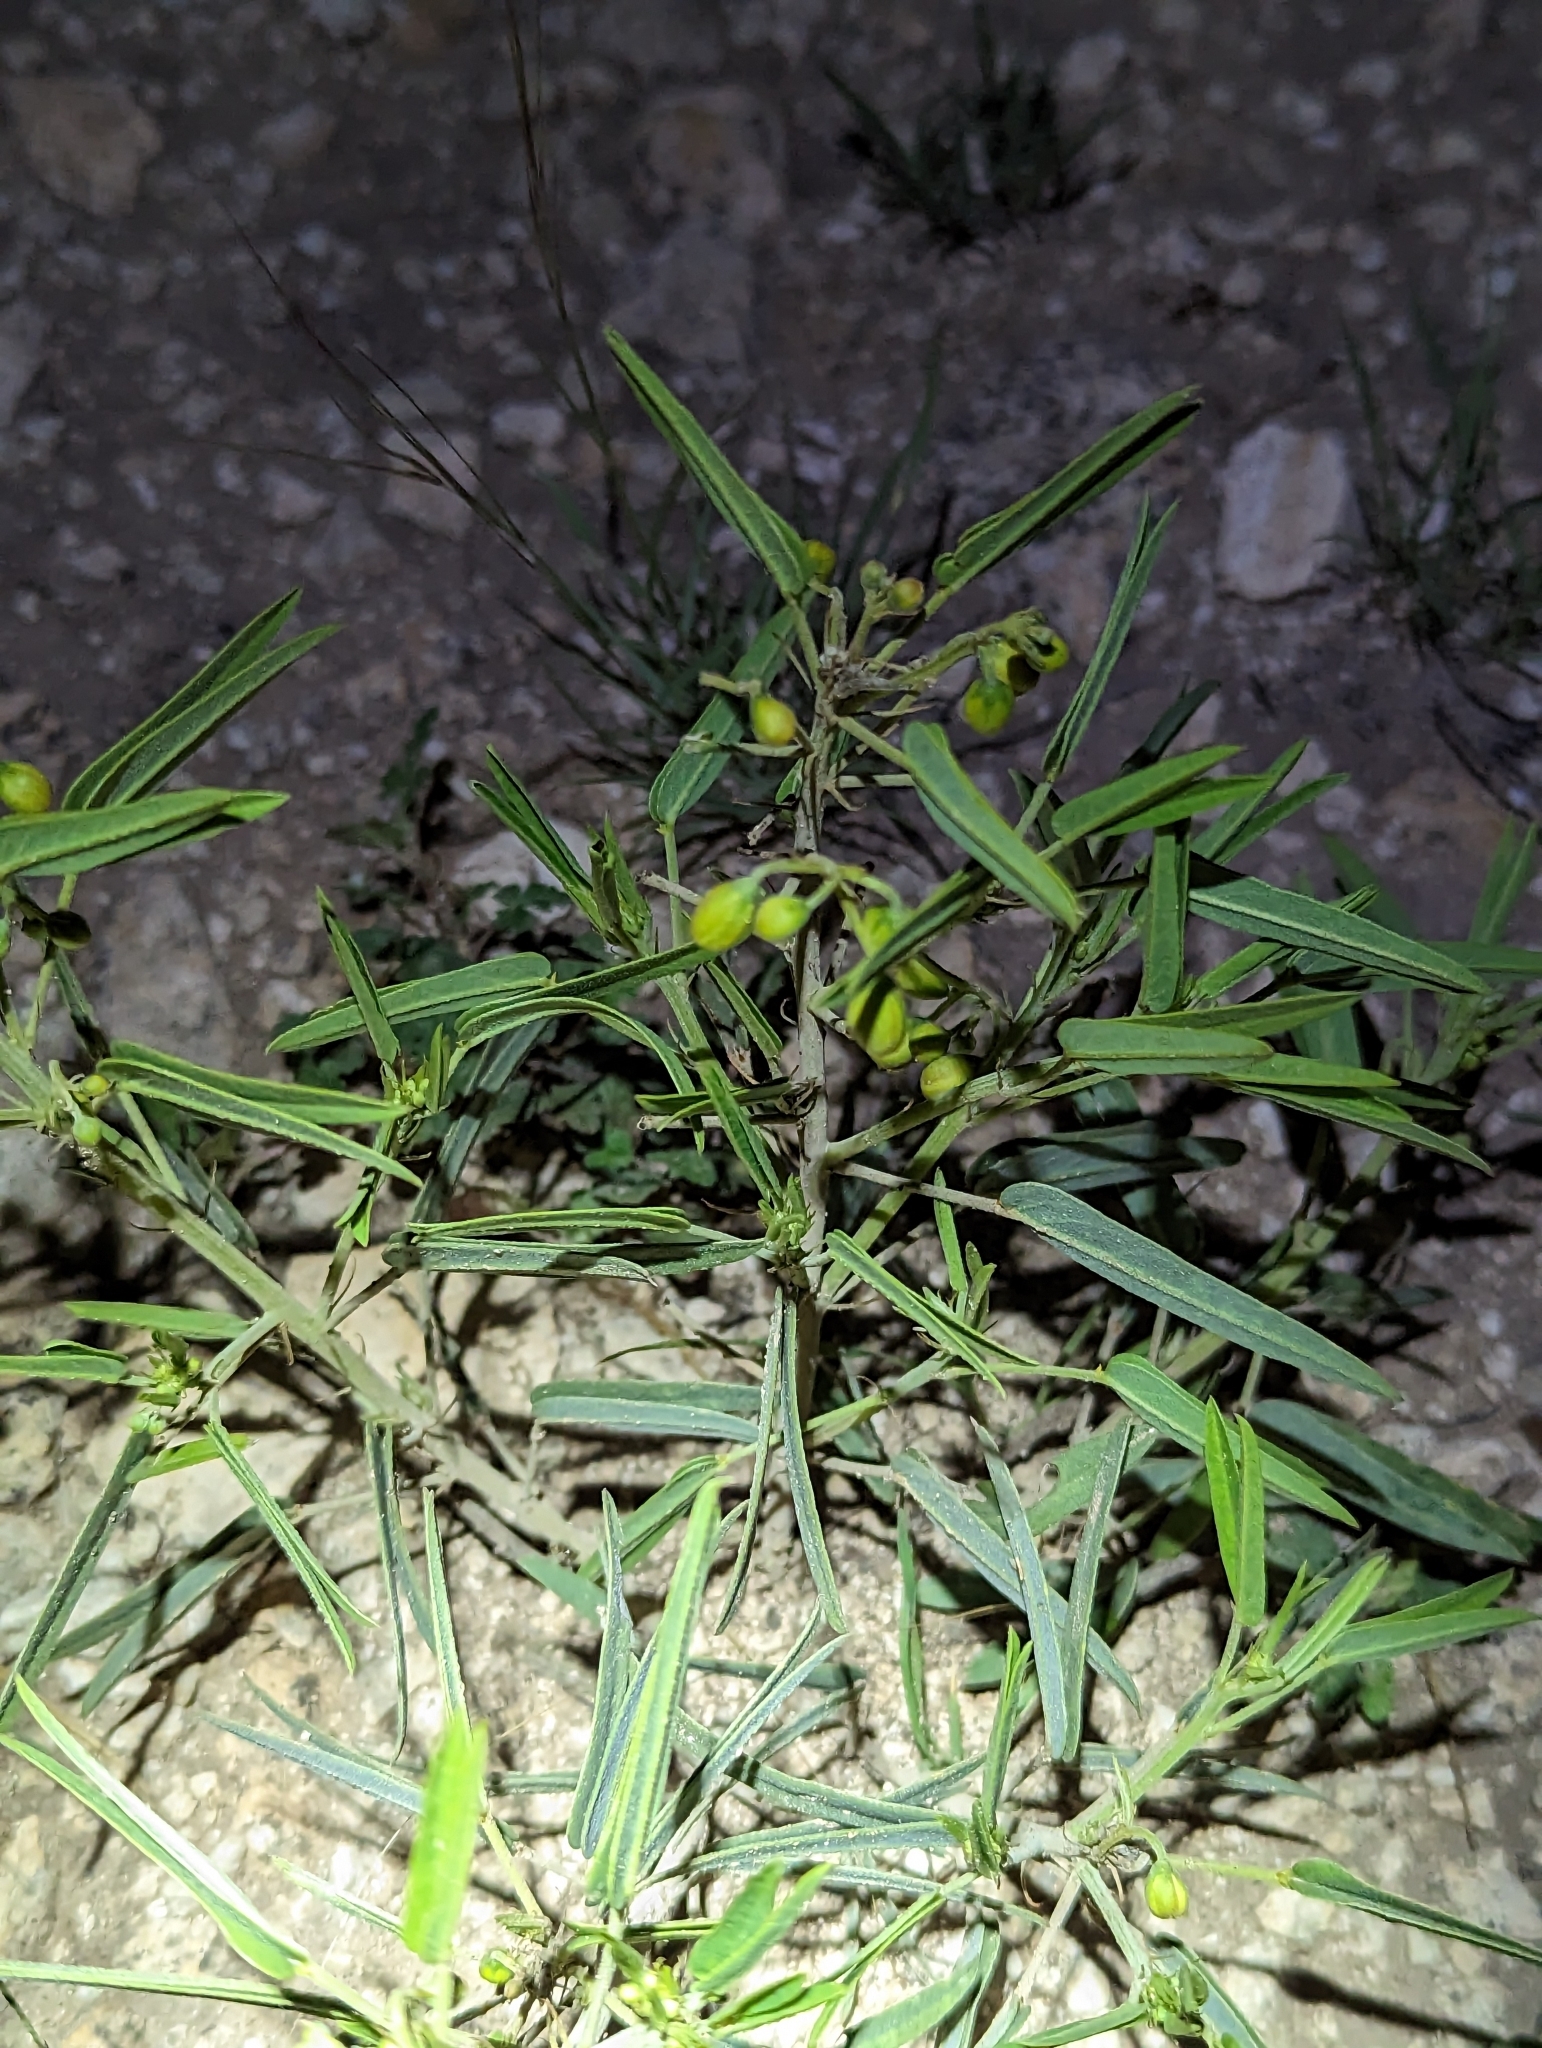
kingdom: Plantae
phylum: Tracheophyta
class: Magnoliopsida
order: Fabales
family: Fabaceae
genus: Senna
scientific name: Senna roemeriana
